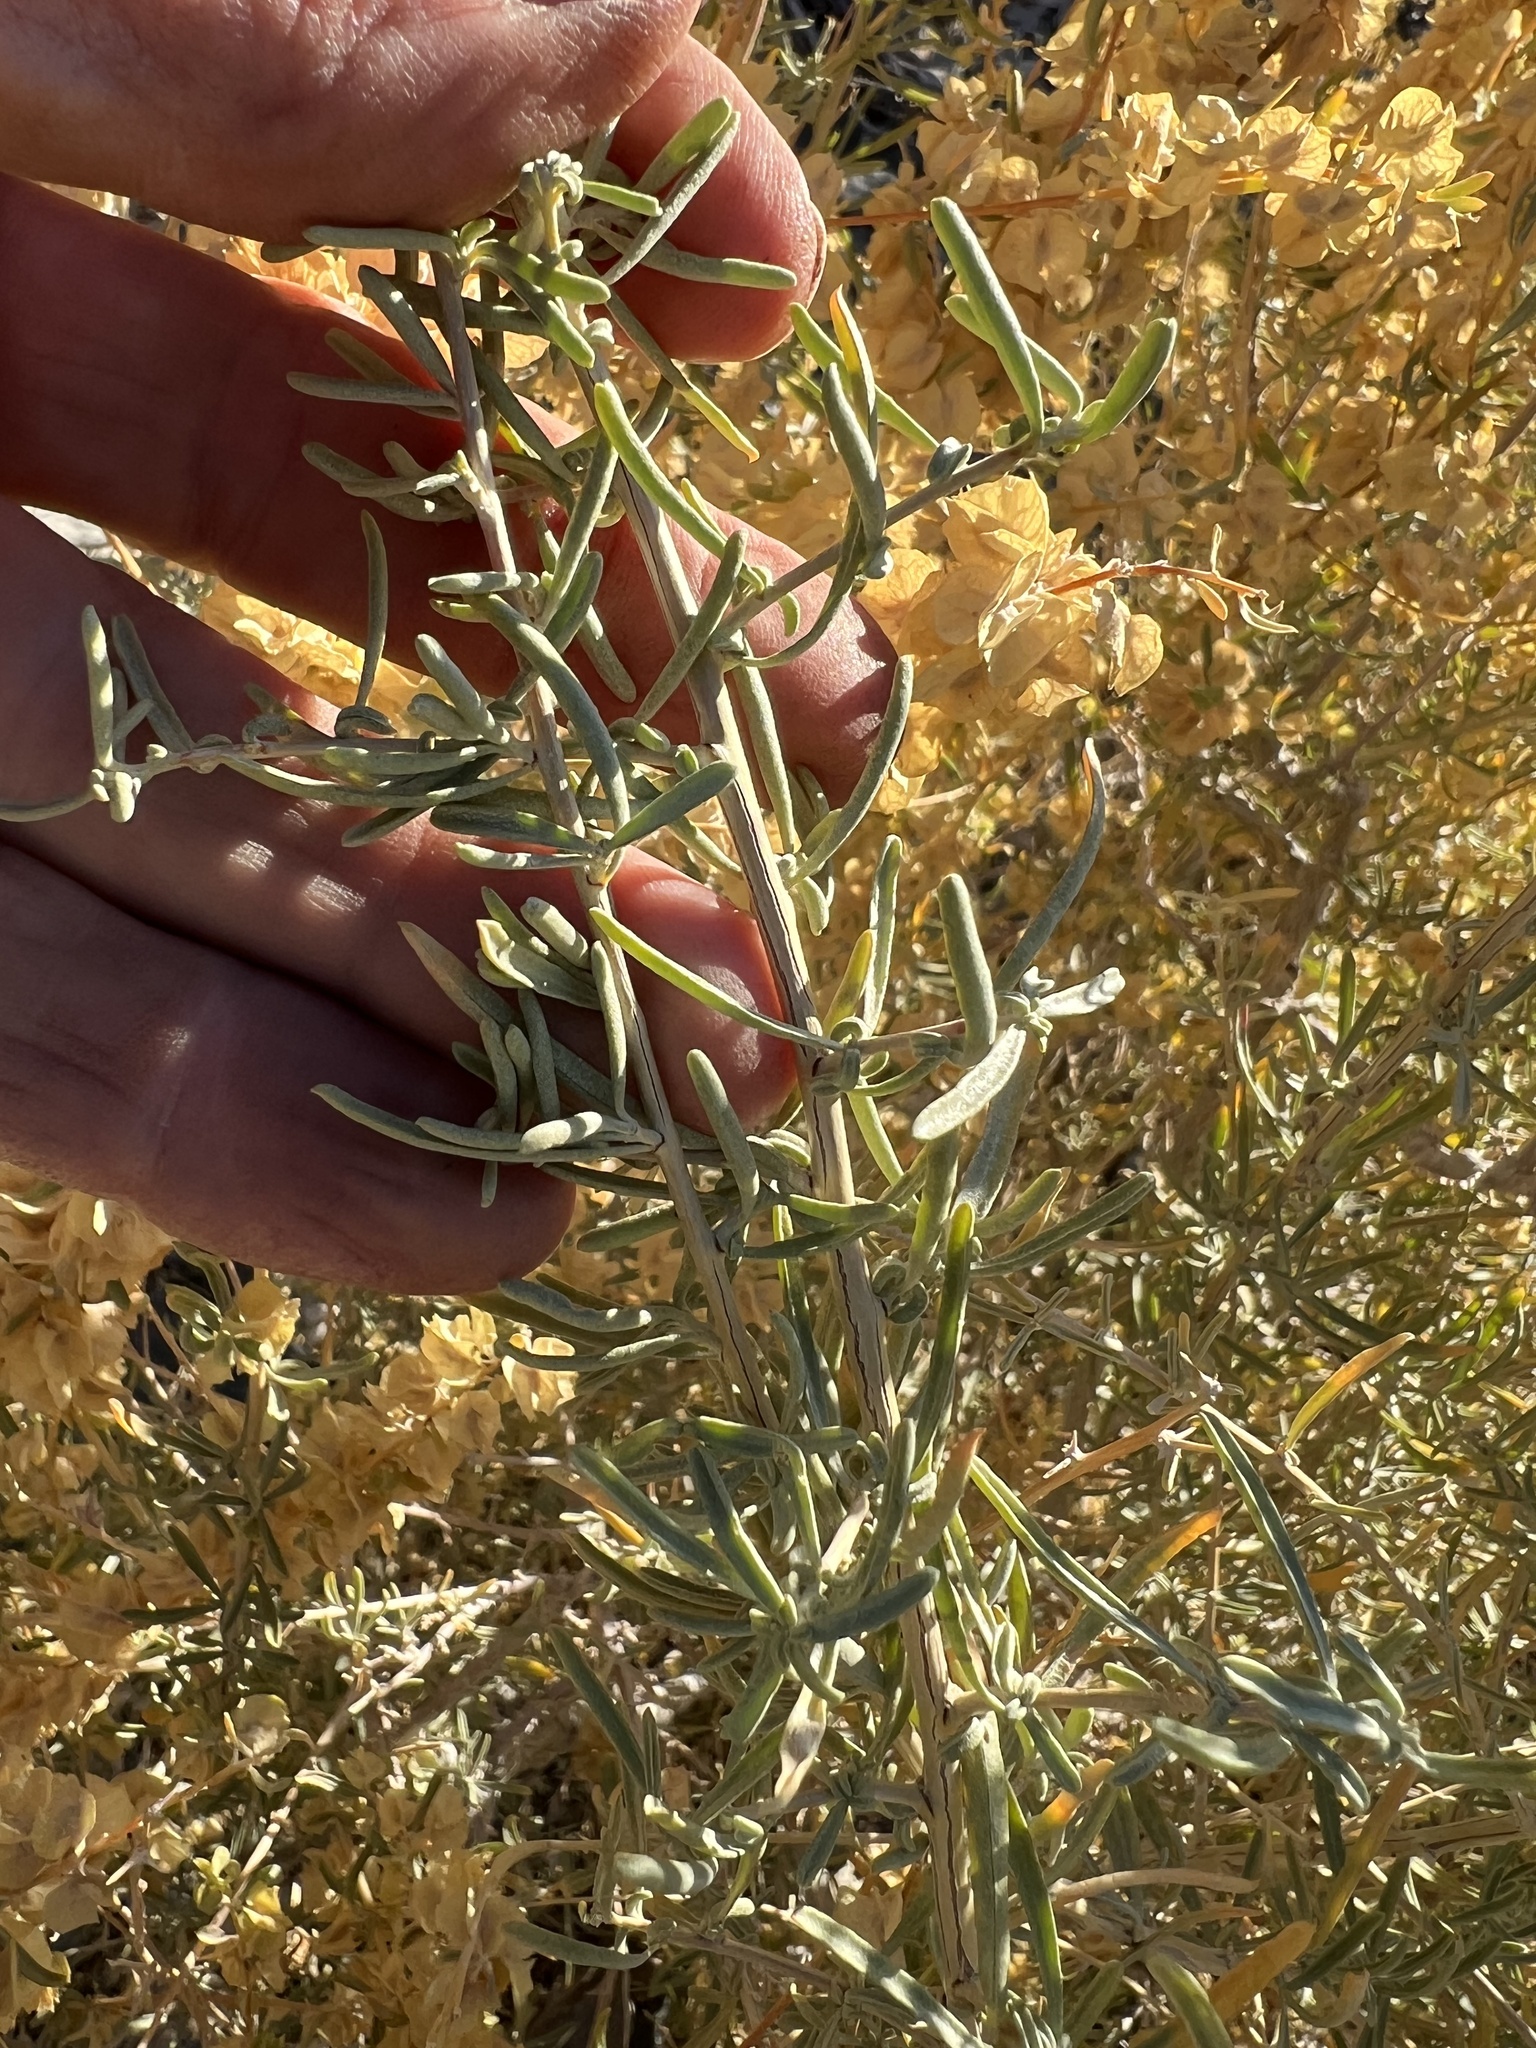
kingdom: Plantae
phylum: Tracheophyta
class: Magnoliopsida
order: Caryophyllales
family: Amaranthaceae
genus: Atriplex
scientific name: Atriplex canescens
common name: Four-wing saltbush
